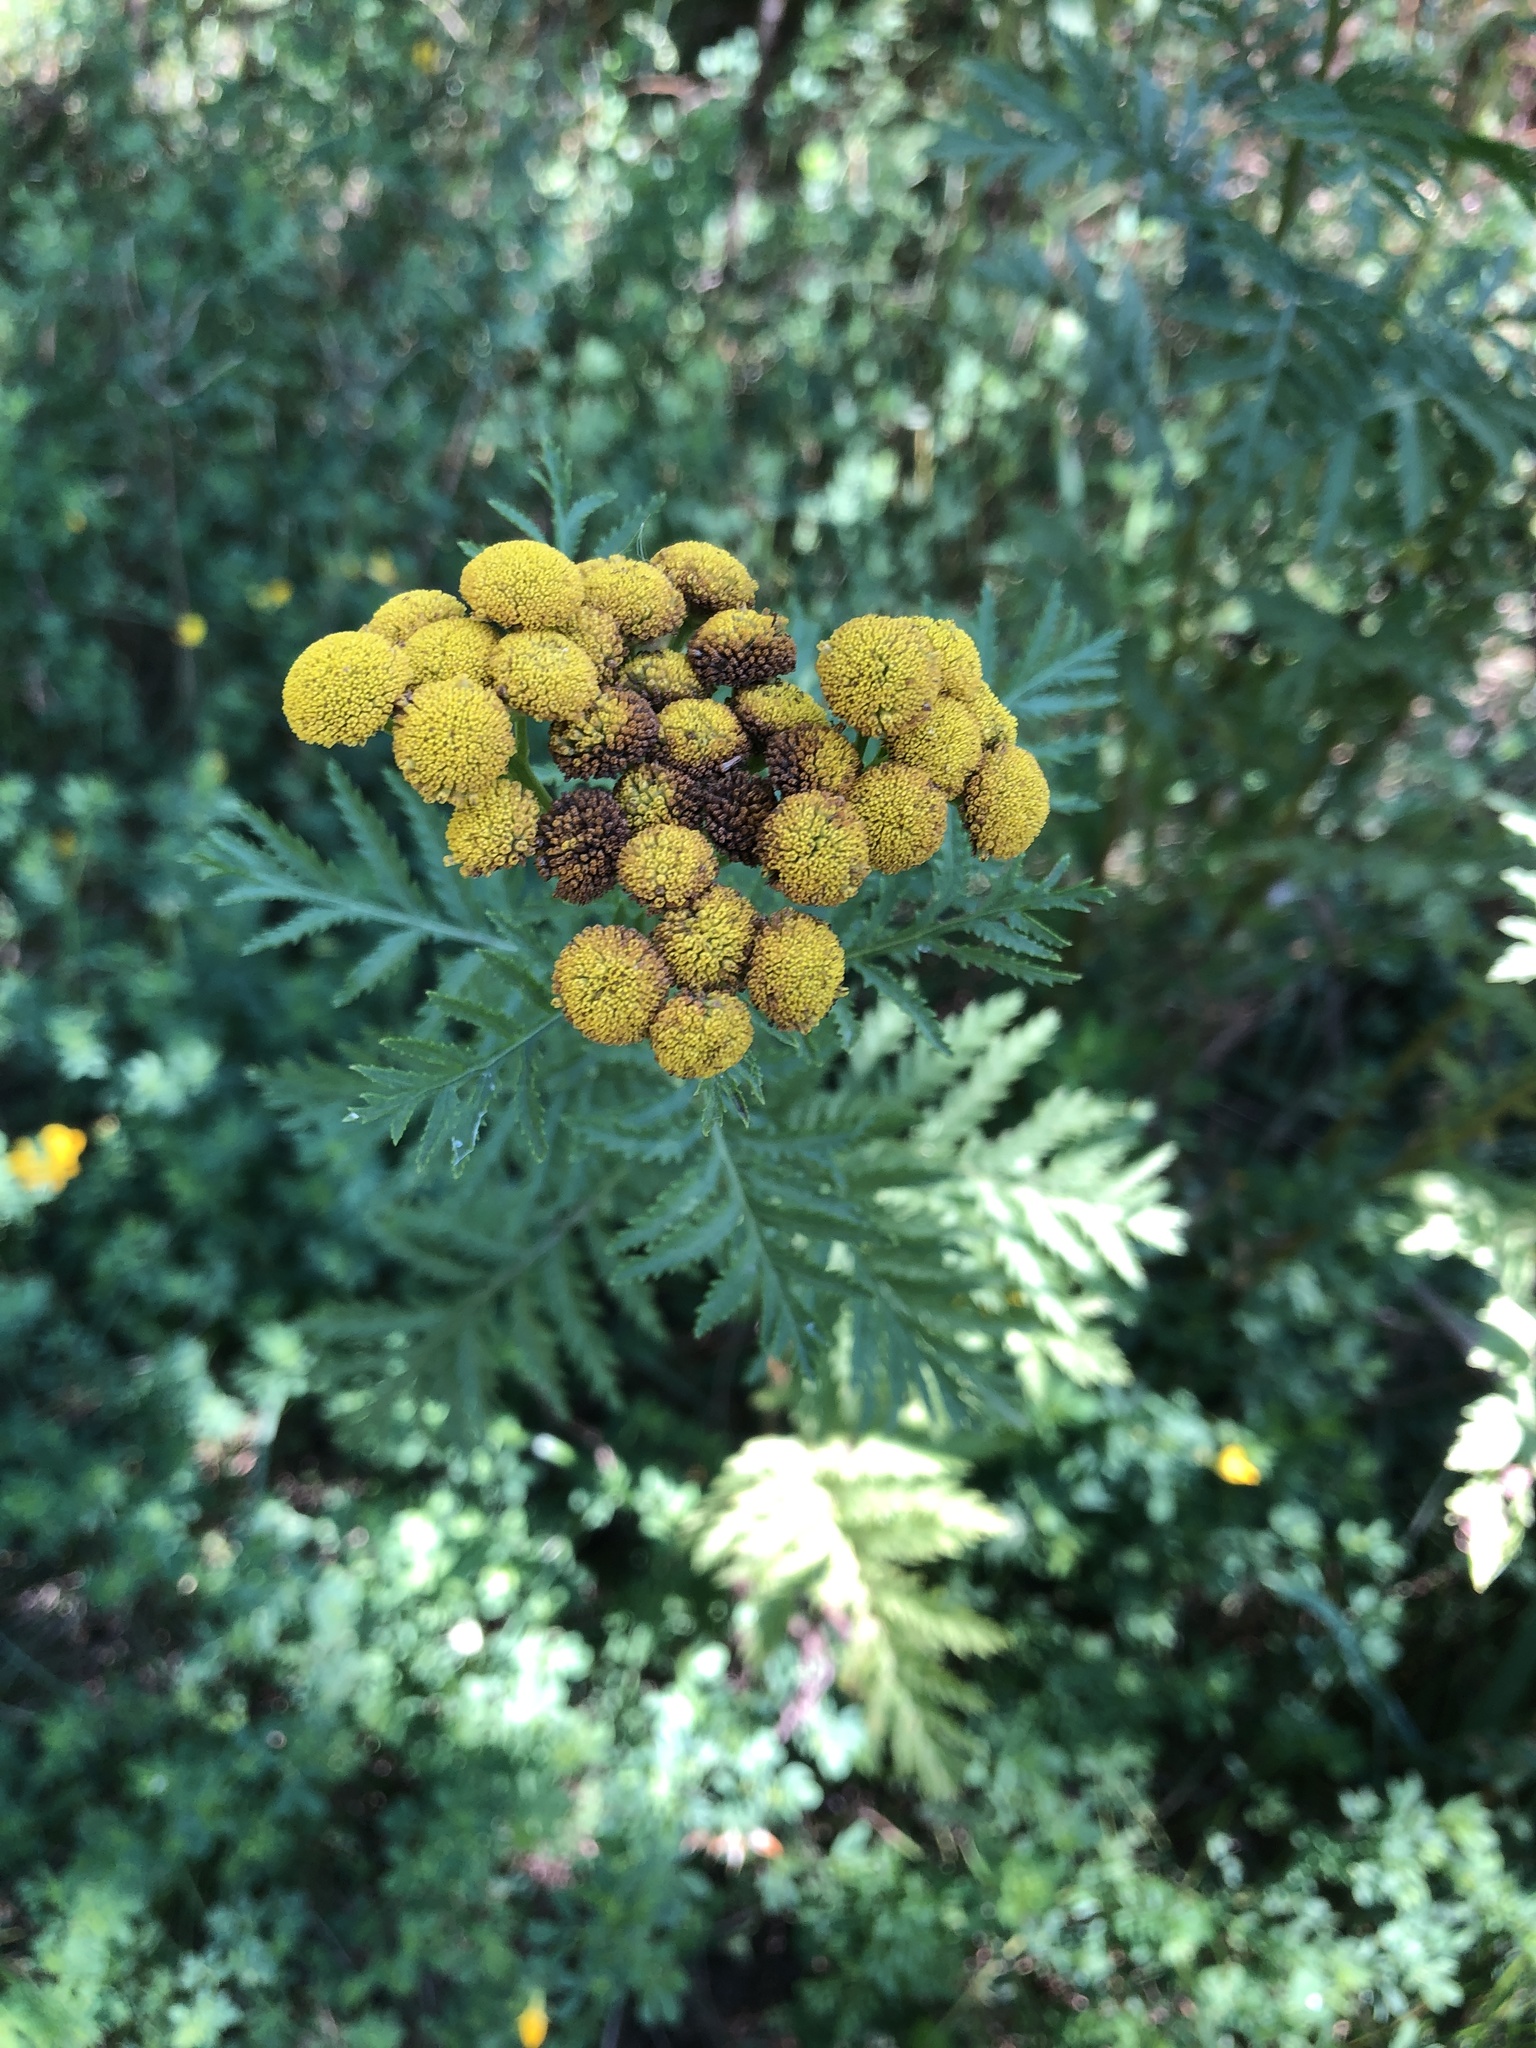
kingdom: Plantae
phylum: Tracheophyta
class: Magnoliopsida
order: Asterales
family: Asteraceae
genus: Tanacetum
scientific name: Tanacetum vulgare
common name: Common tansy
